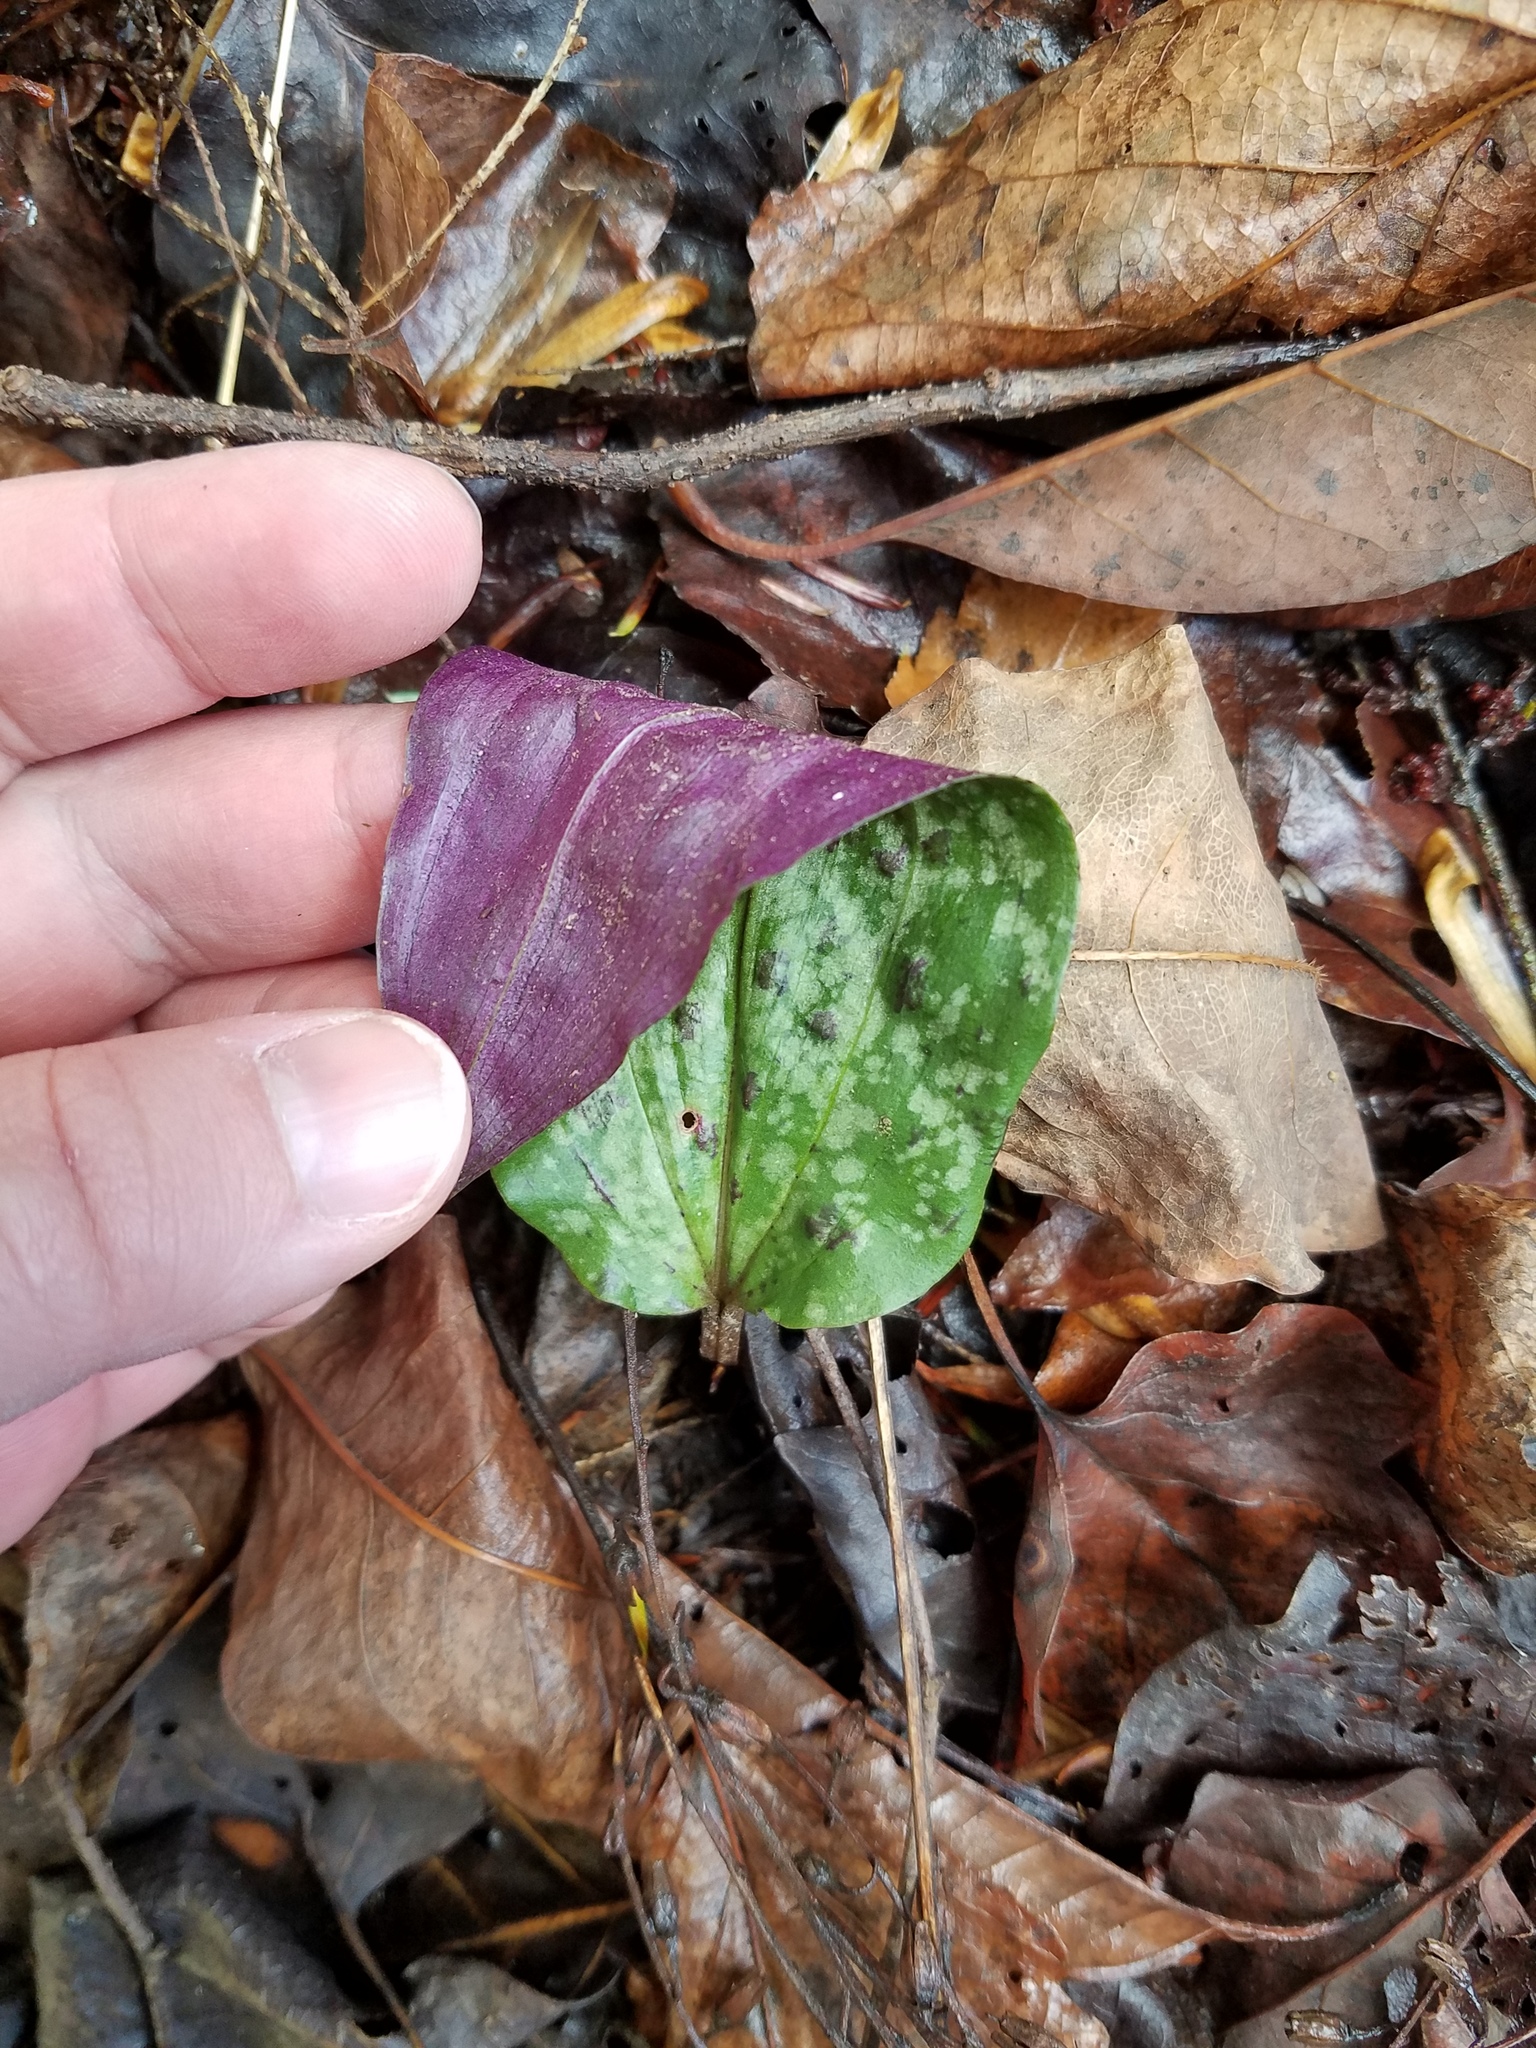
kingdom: Plantae
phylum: Tracheophyta
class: Liliopsida
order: Asparagales
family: Orchidaceae
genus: Tipularia
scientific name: Tipularia discolor
